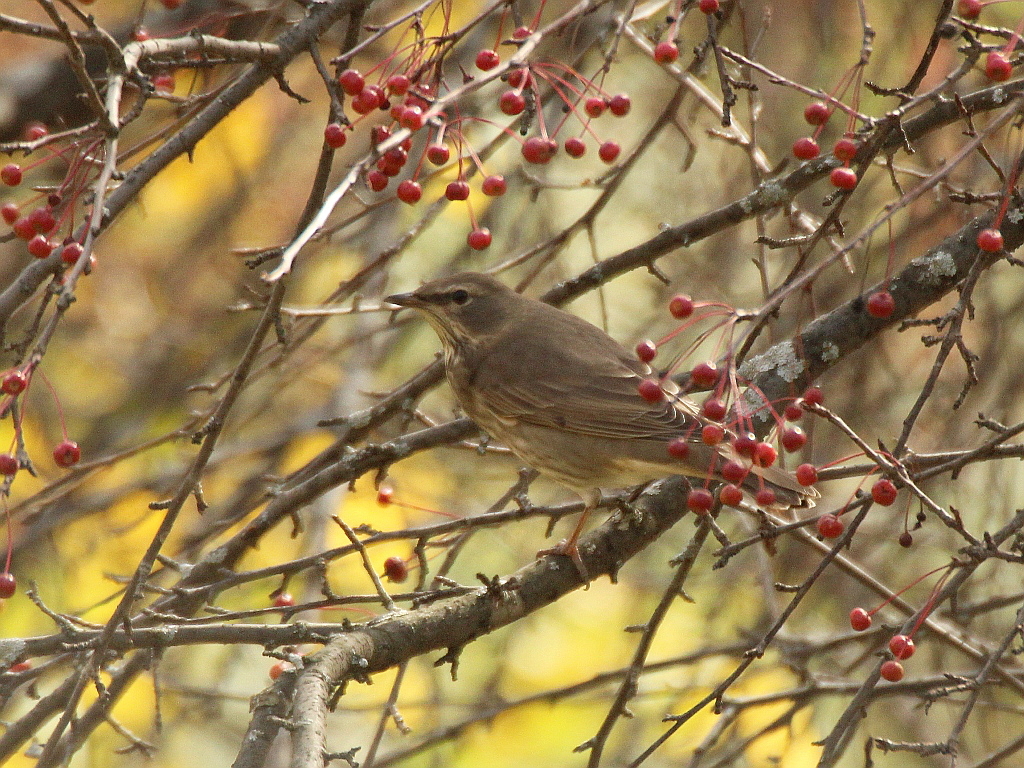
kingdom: Animalia
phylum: Chordata
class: Aves
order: Passeriformes
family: Turdidae
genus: Turdus
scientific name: Turdus atrogularis
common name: Black-throated thrush
